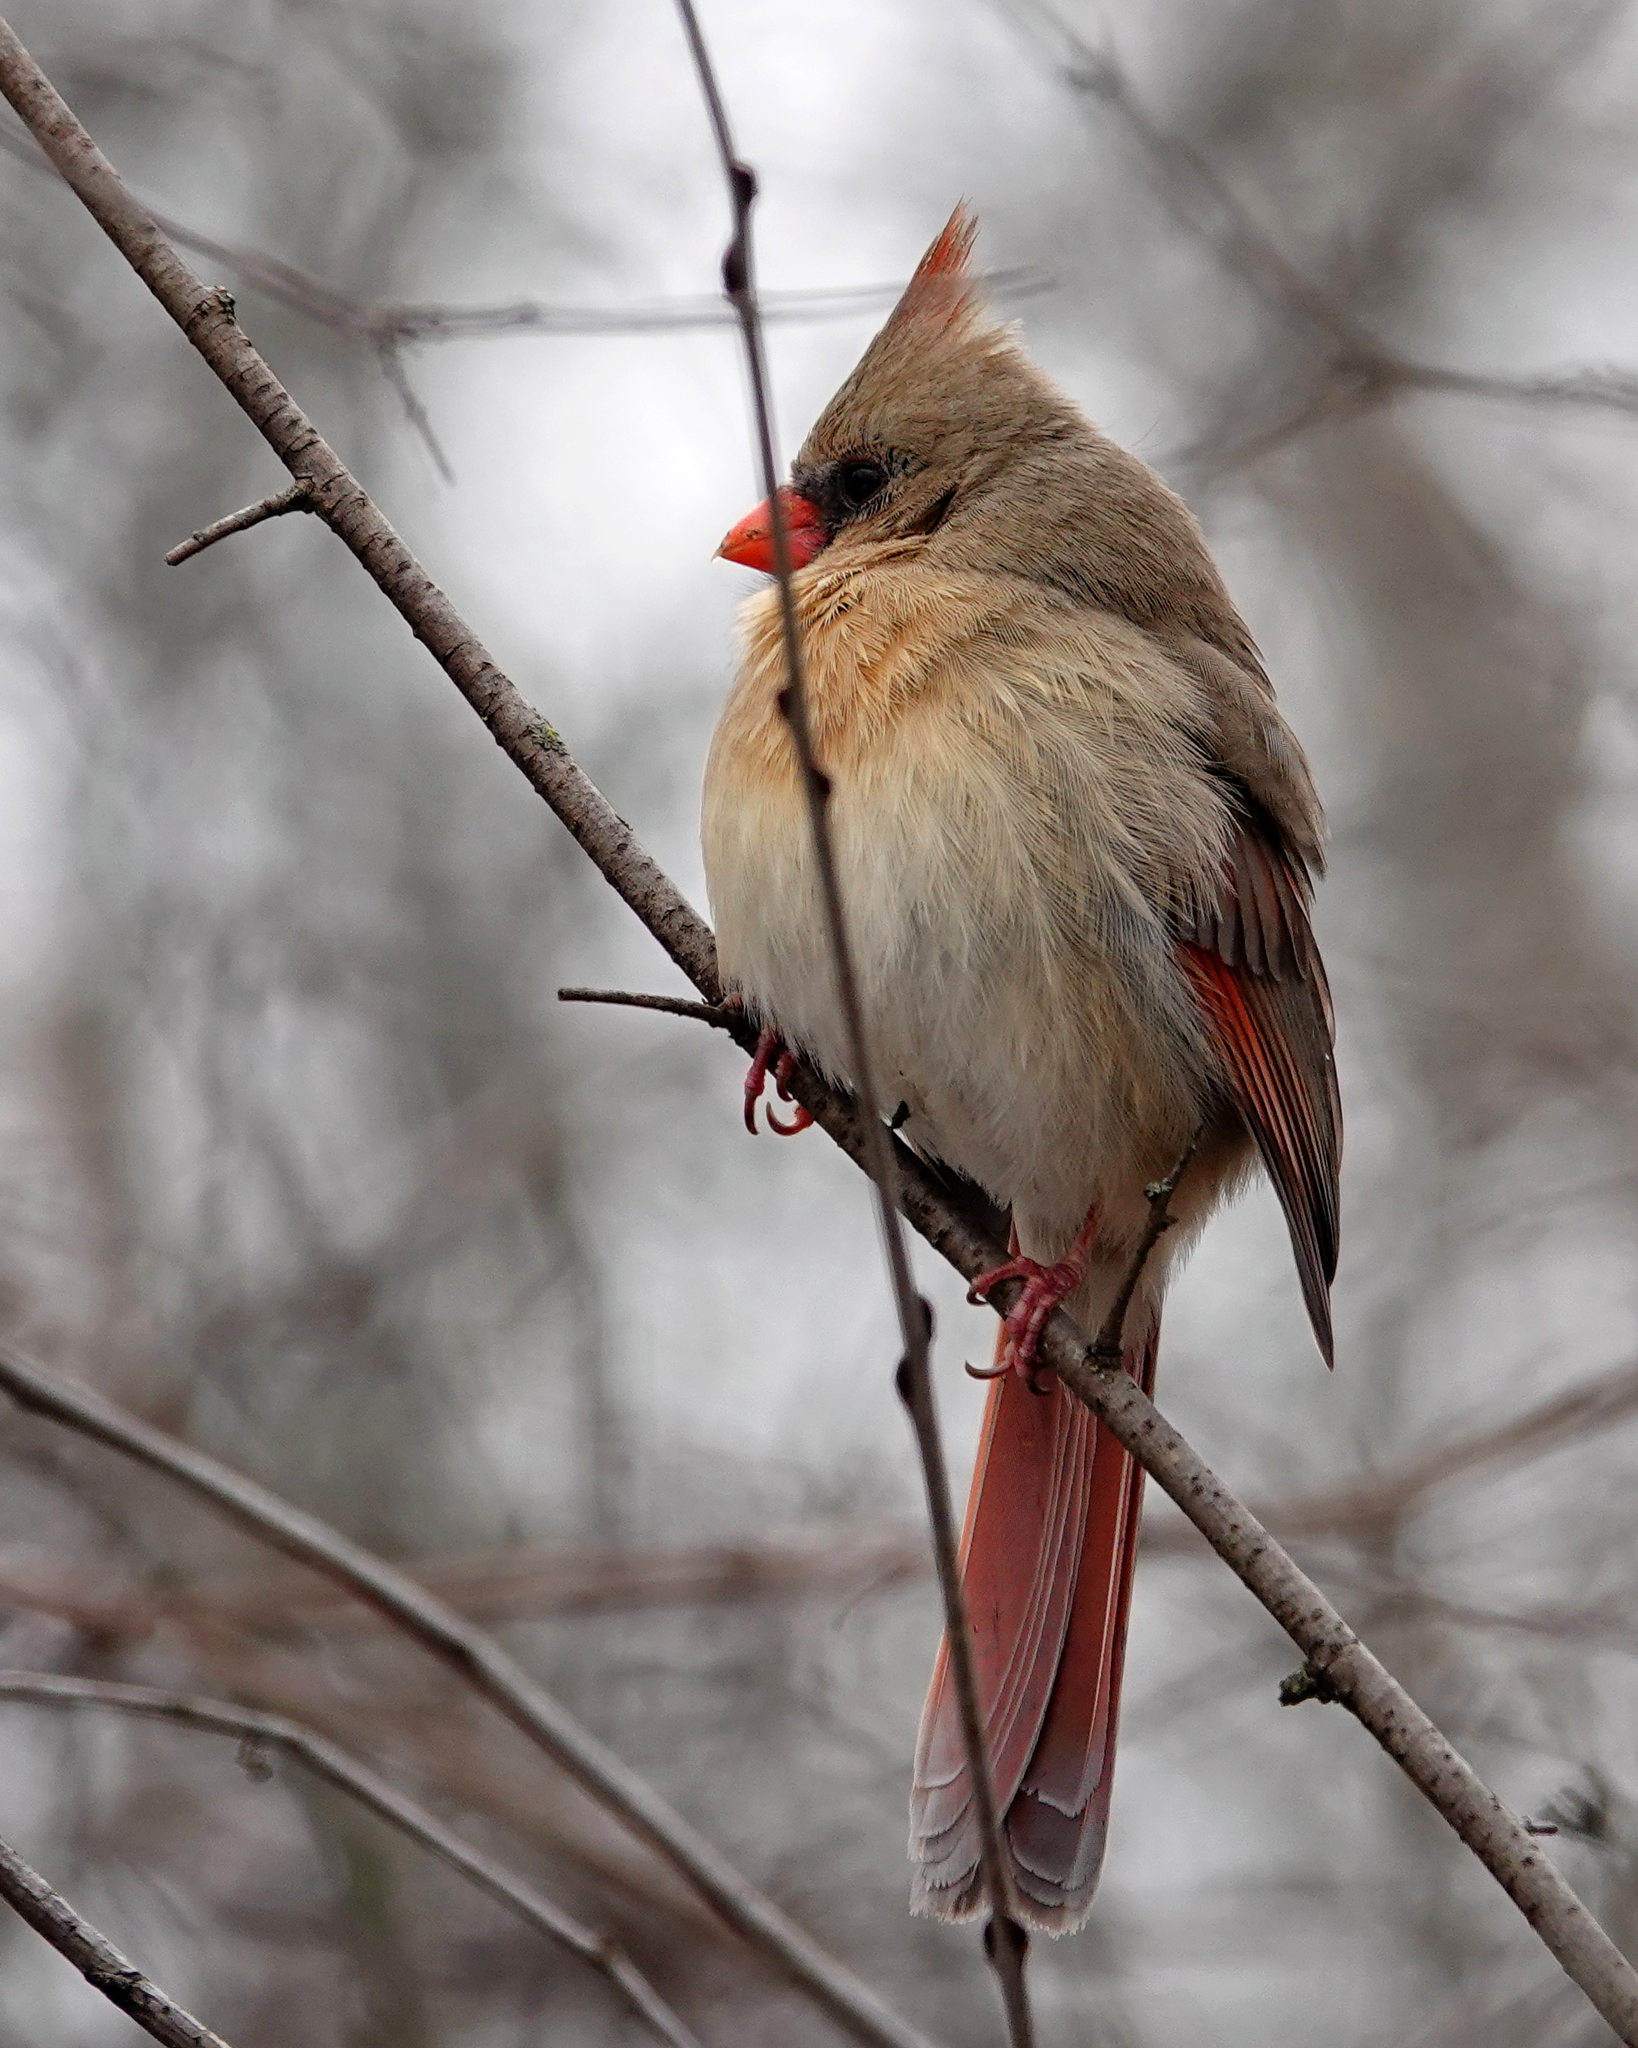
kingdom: Animalia
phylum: Chordata
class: Aves
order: Passeriformes
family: Cardinalidae
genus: Cardinalis
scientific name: Cardinalis cardinalis
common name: Northern cardinal
